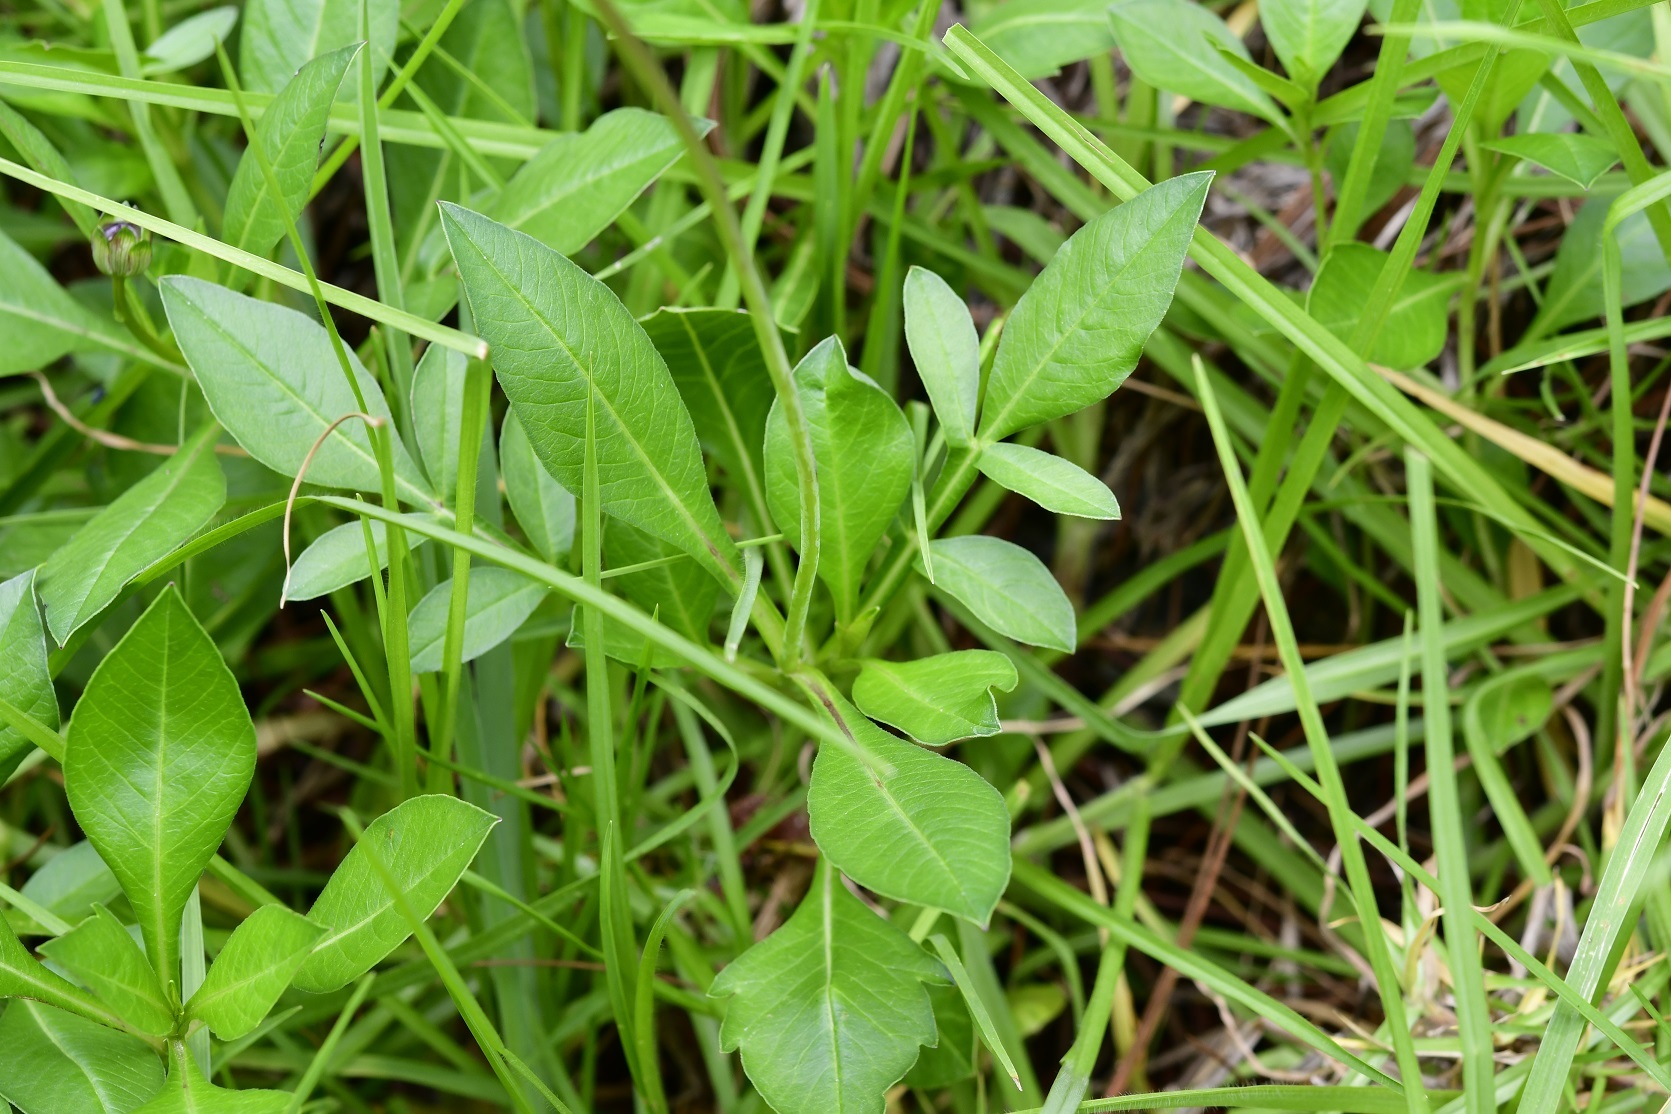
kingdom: Plantae
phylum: Tracheophyta
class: Magnoliopsida
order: Asterales
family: Asteraceae
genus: Cosmos
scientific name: Cosmos diversifolius
